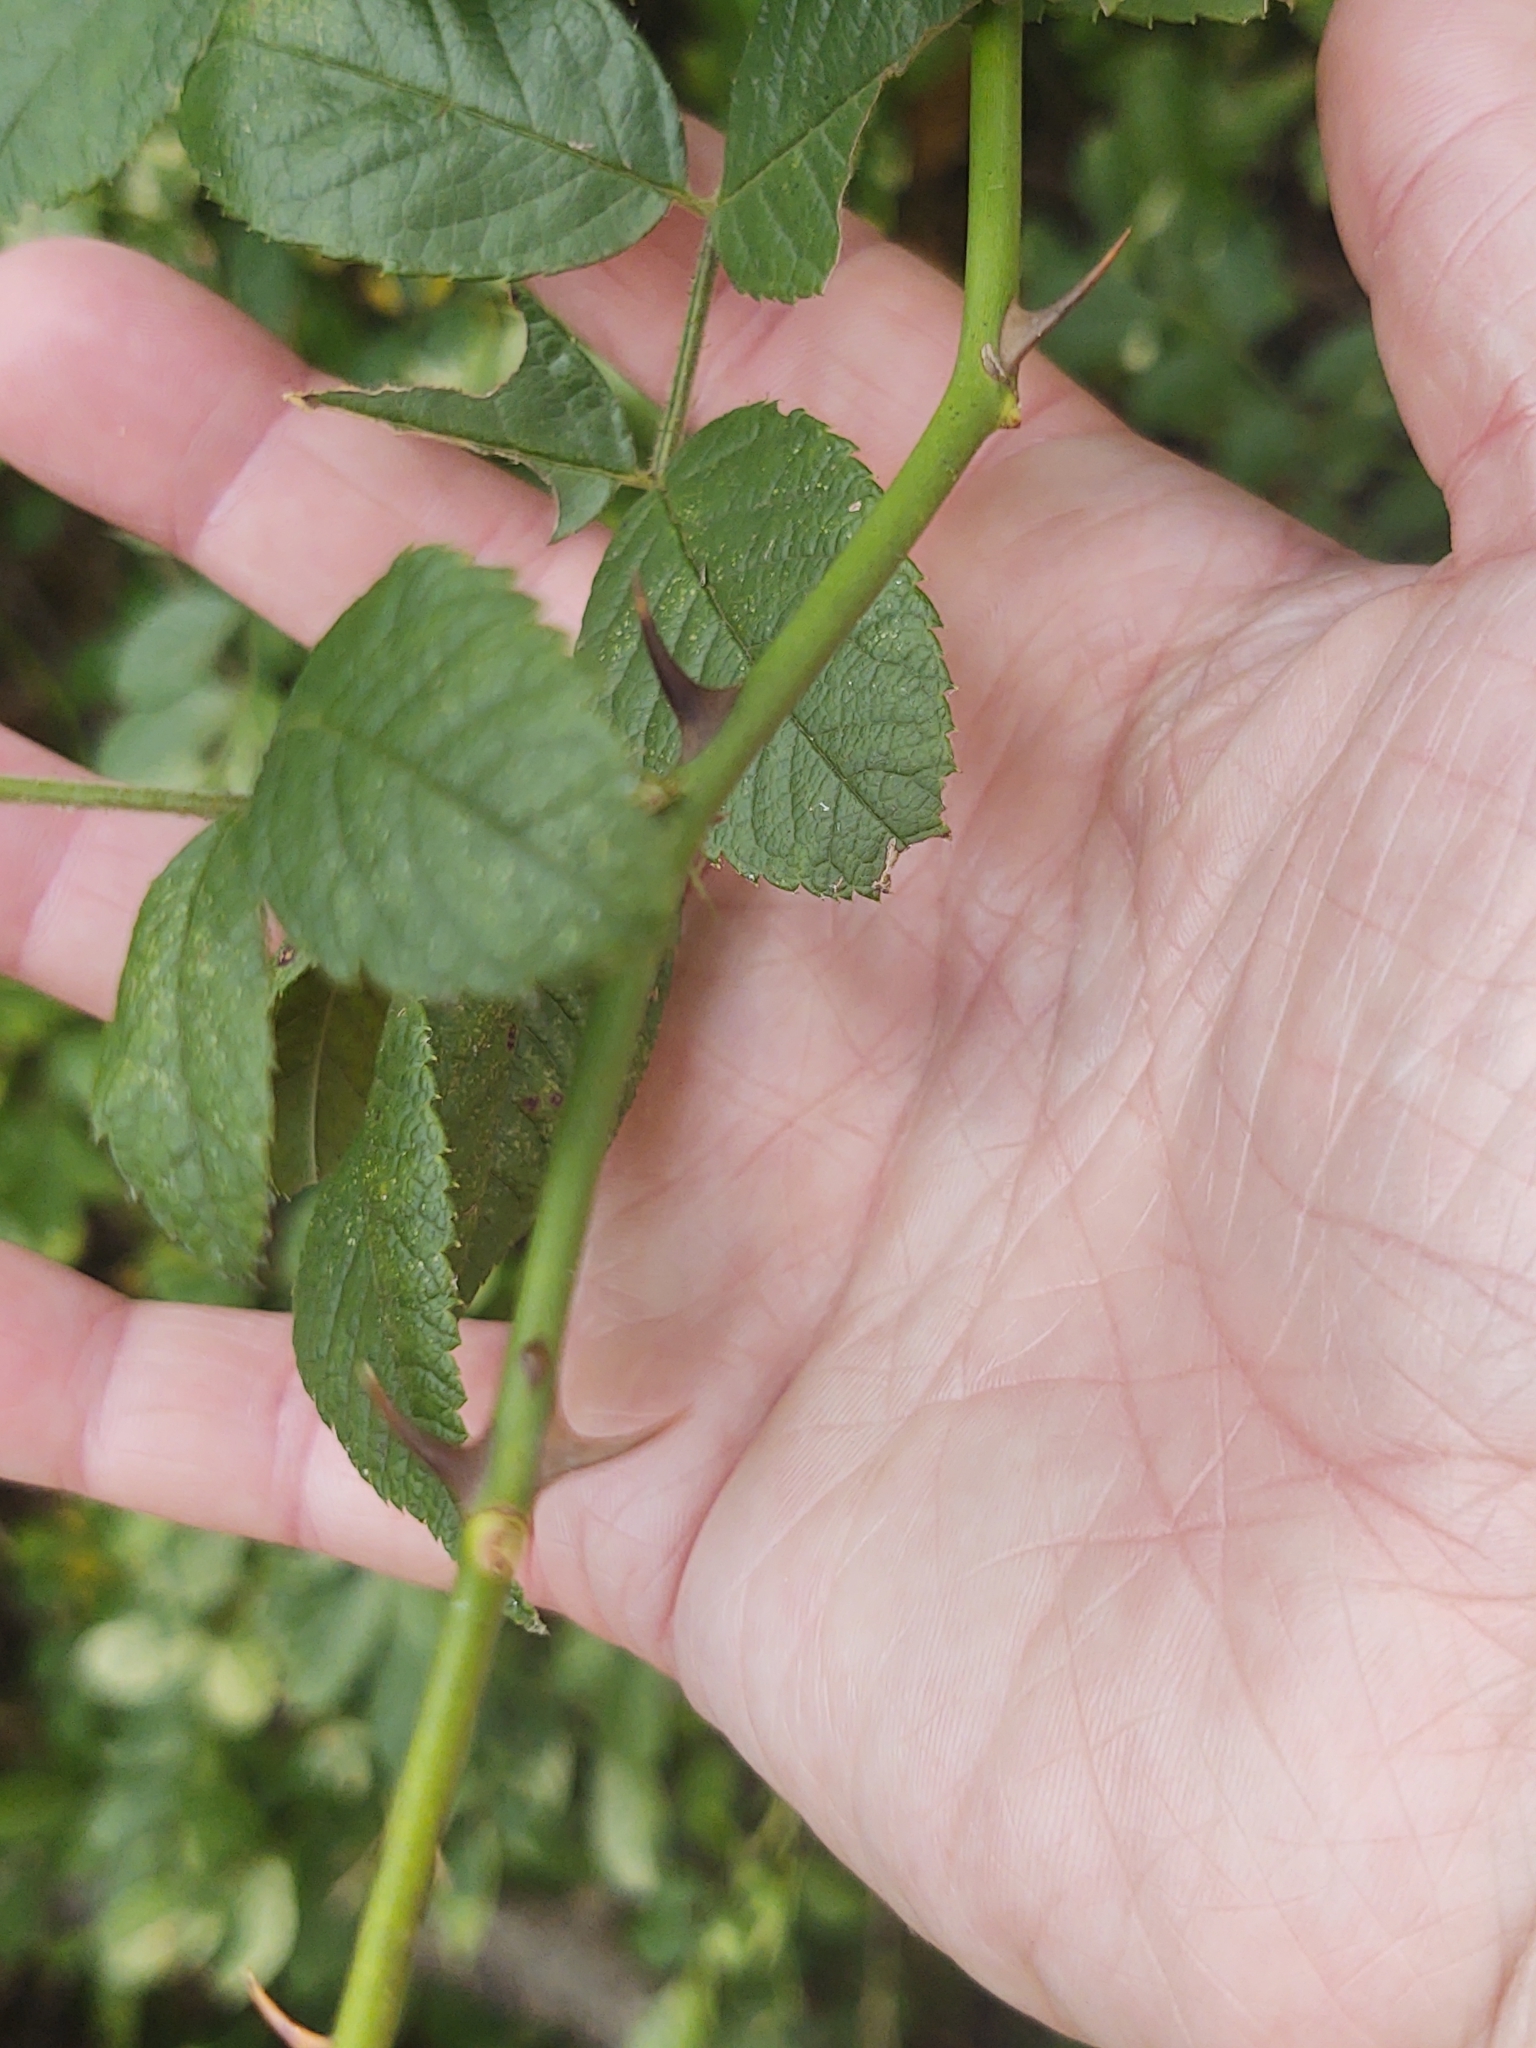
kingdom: Plantae
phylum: Tracheophyta
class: Magnoliopsida
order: Rosales
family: Rosaceae
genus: Rosa
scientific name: Rosa multiflora
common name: Multiflora rose
